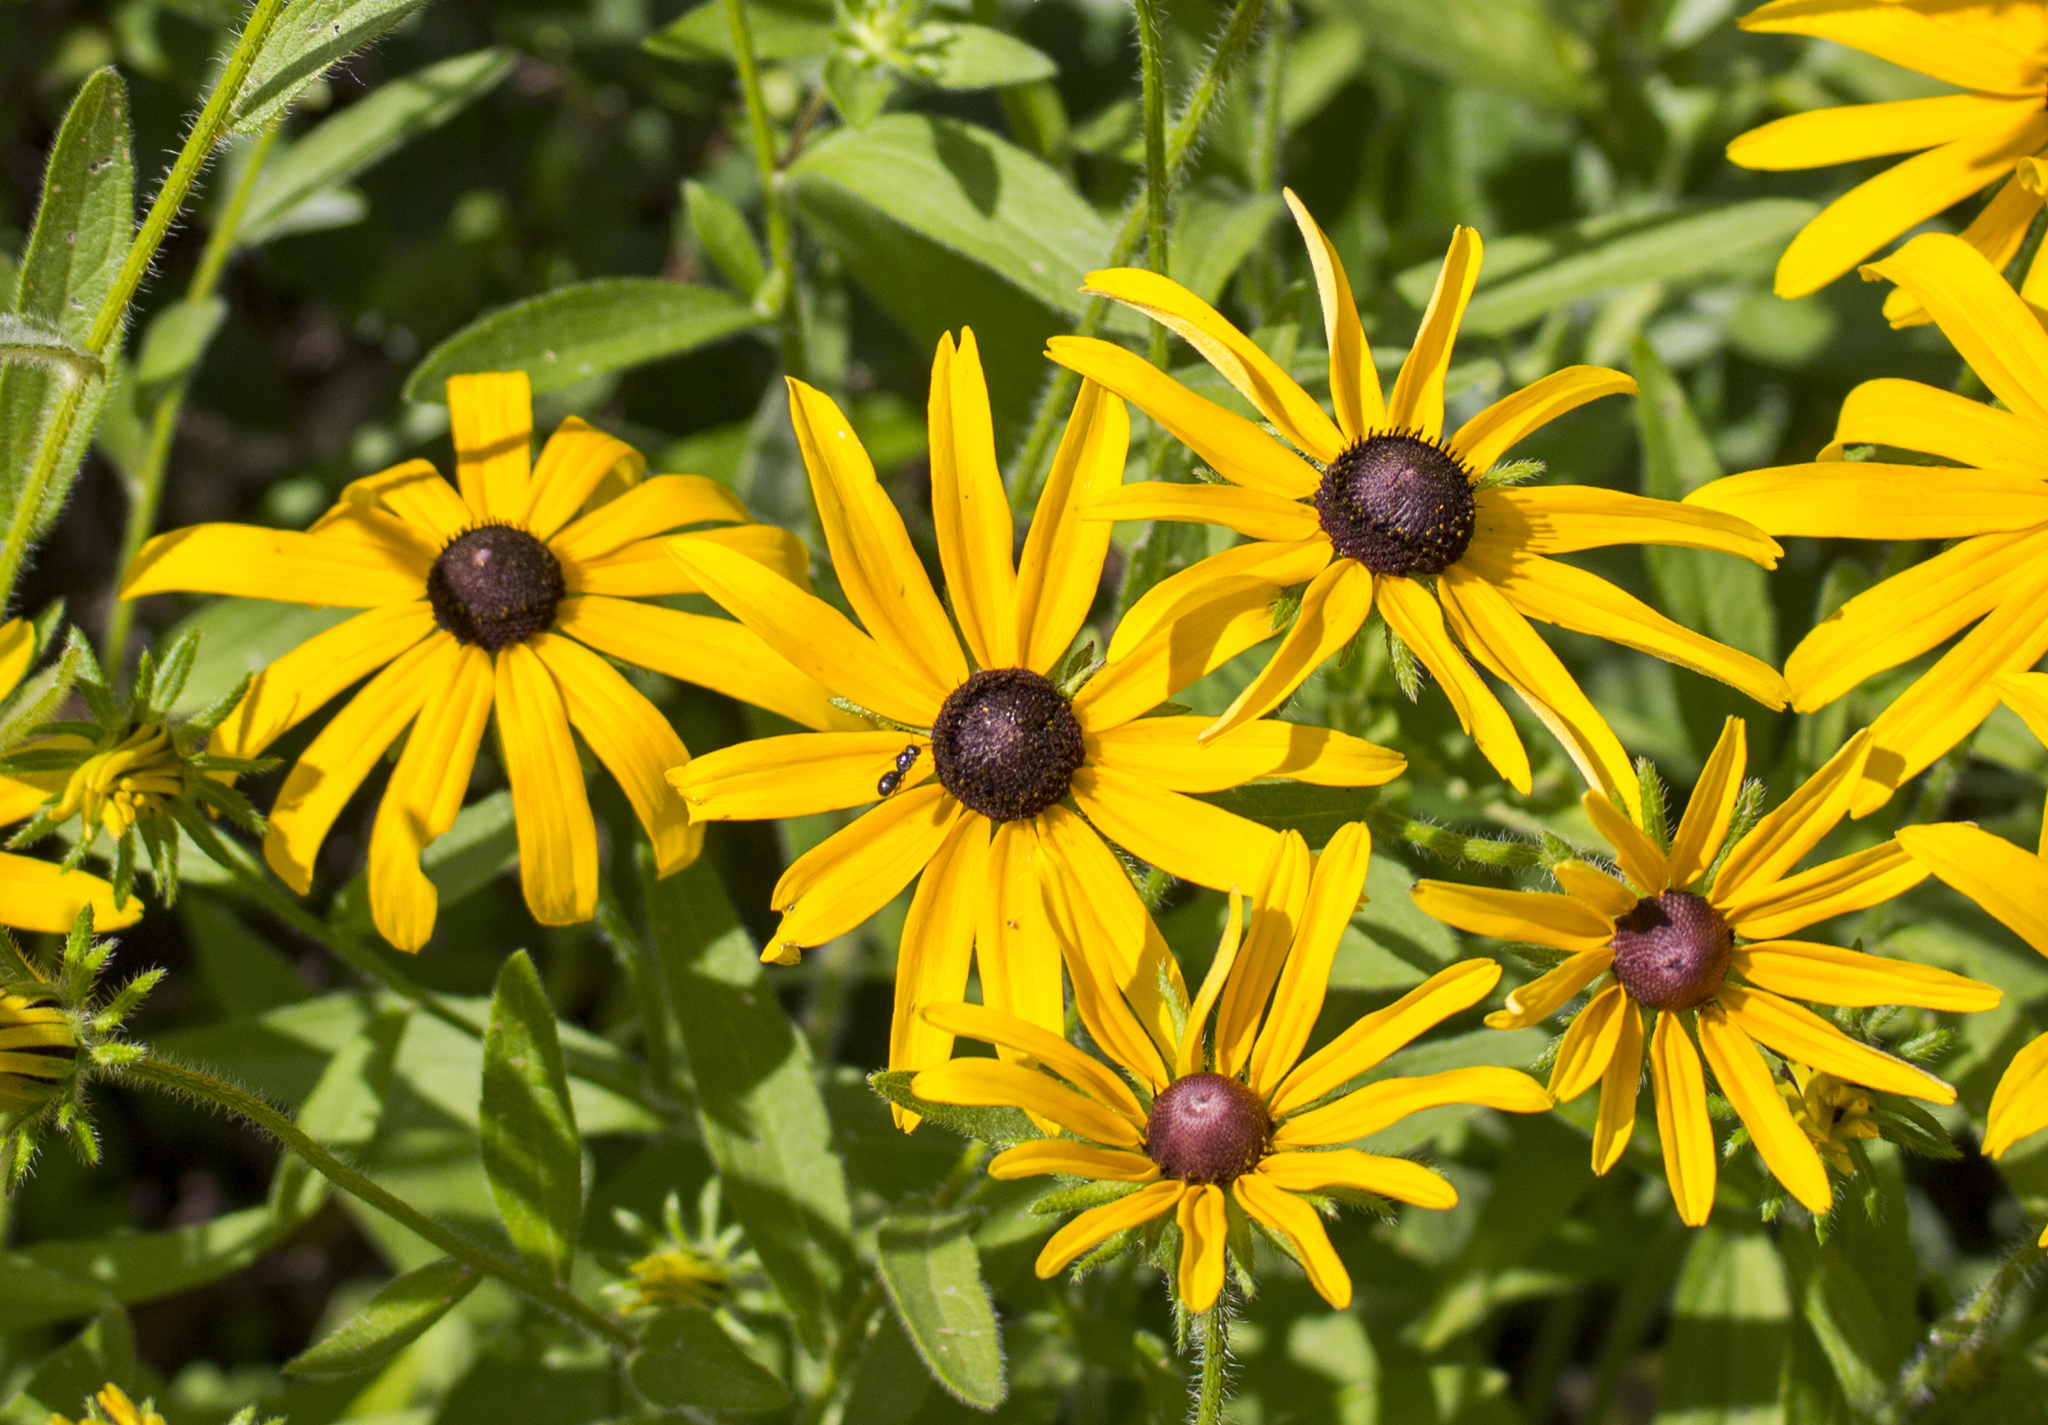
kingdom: Plantae
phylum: Tracheophyta
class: Magnoliopsida
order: Asterales
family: Asteraceae
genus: Rudbeckia
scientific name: Rudbeckia hirta
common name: Black-eyed-susan
